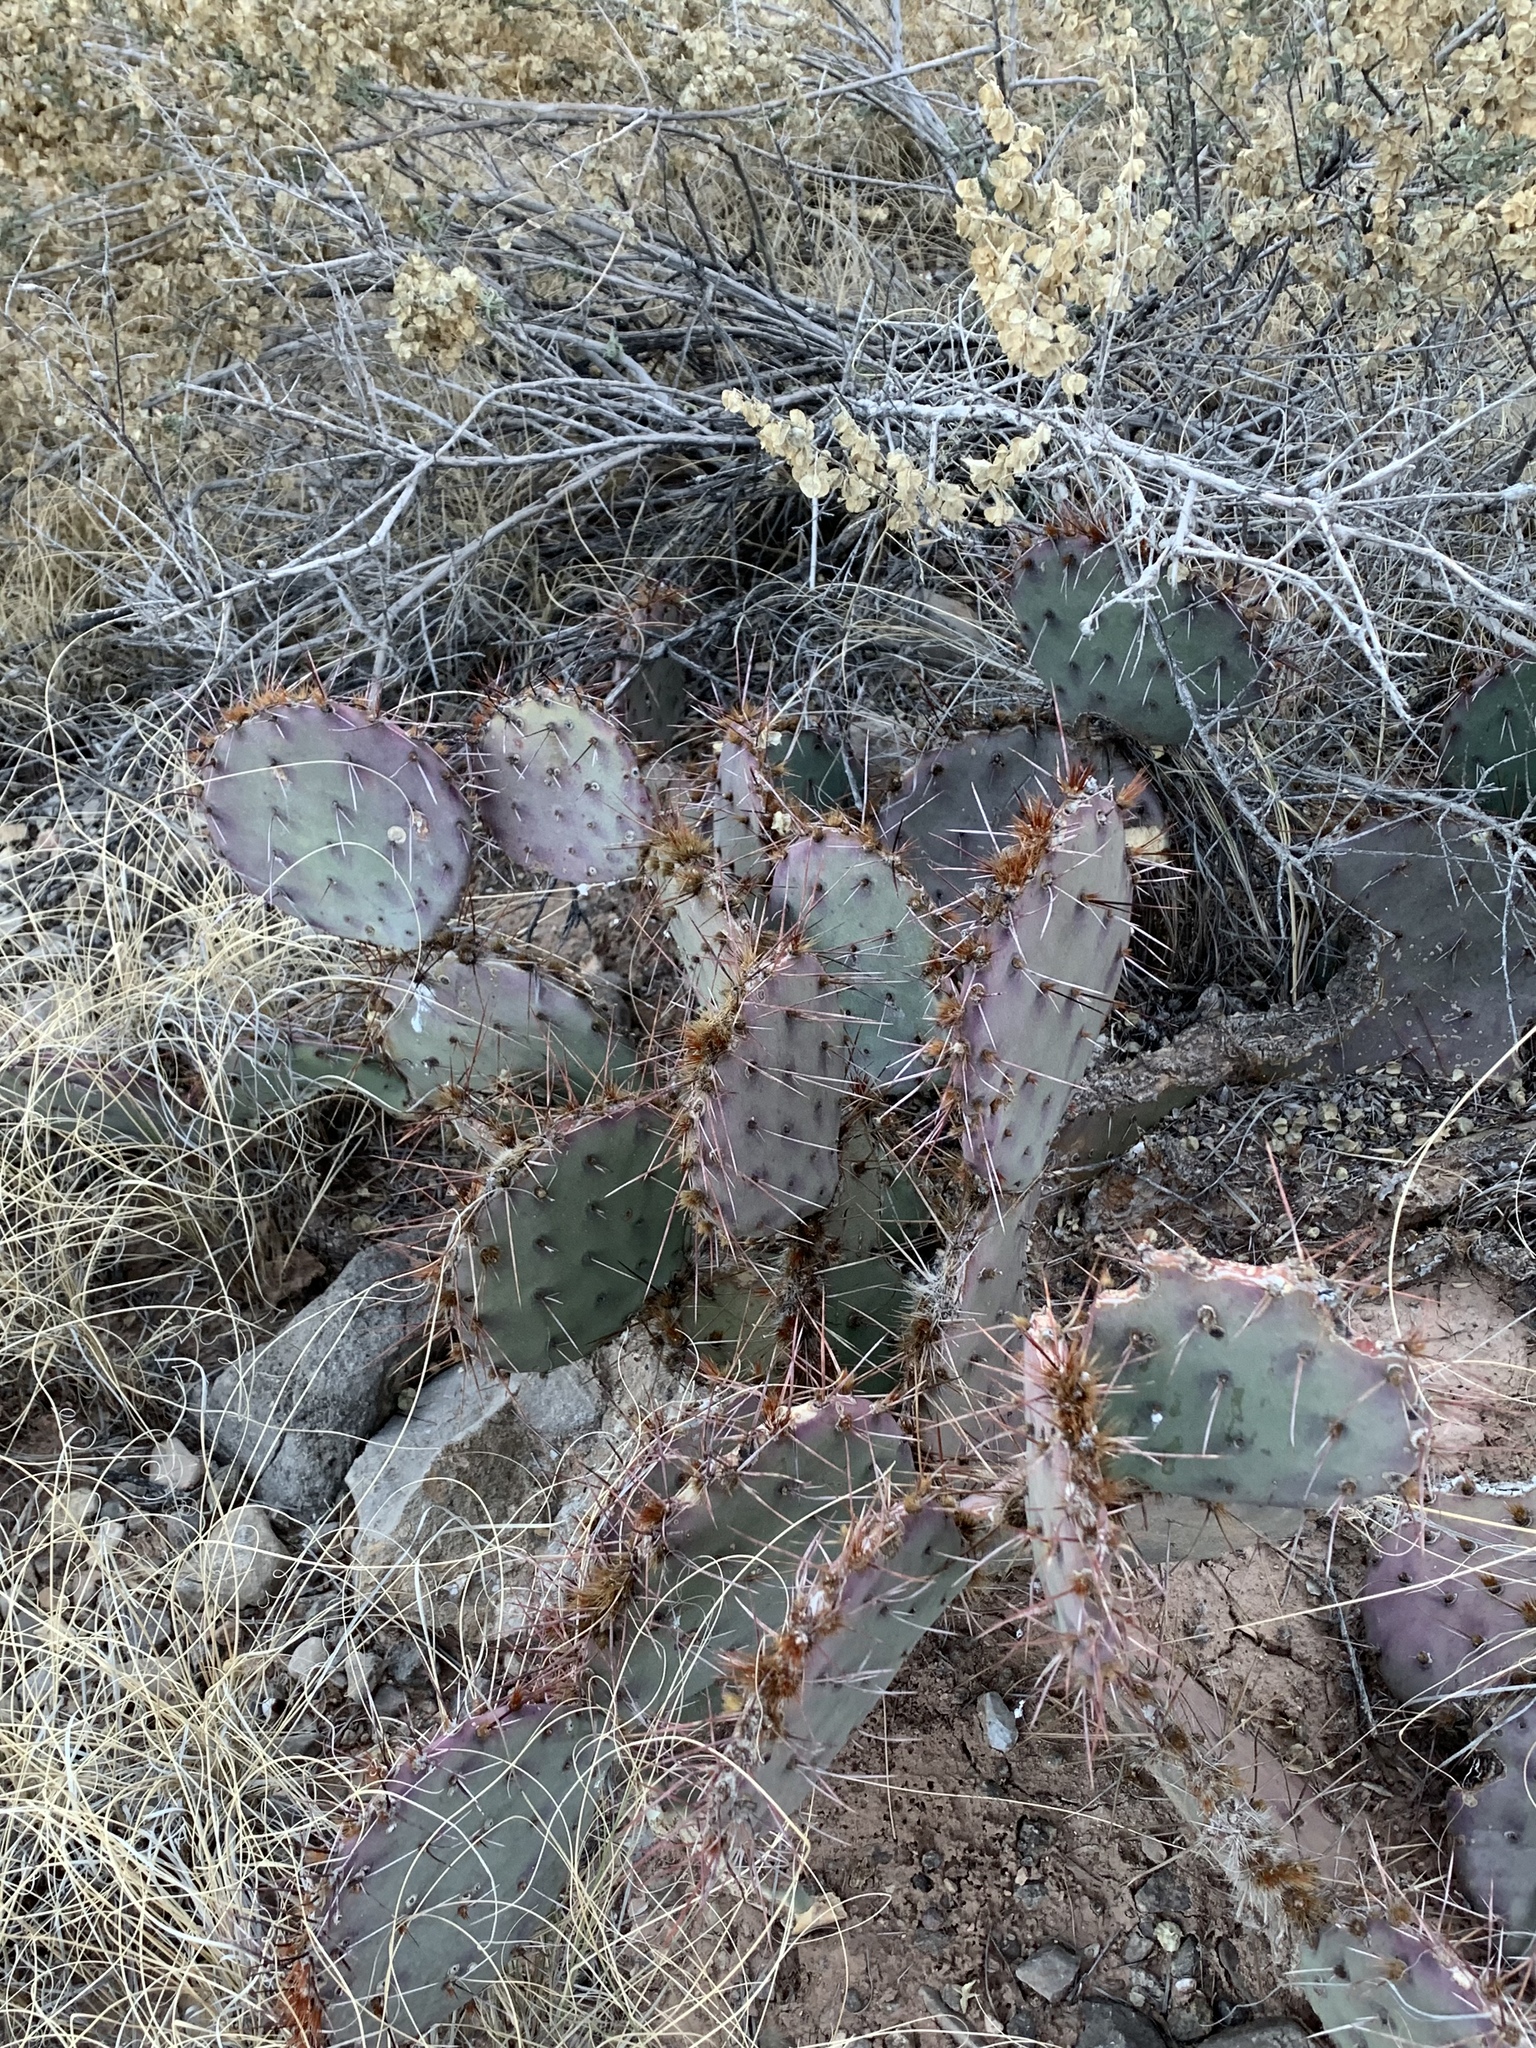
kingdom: Plantae
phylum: Tracheophyta
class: Magnoliopsida
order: Caryophyllales
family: Cactaceae
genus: Opuntia
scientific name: Opuntia macrocentra
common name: Purple prickly-pear
